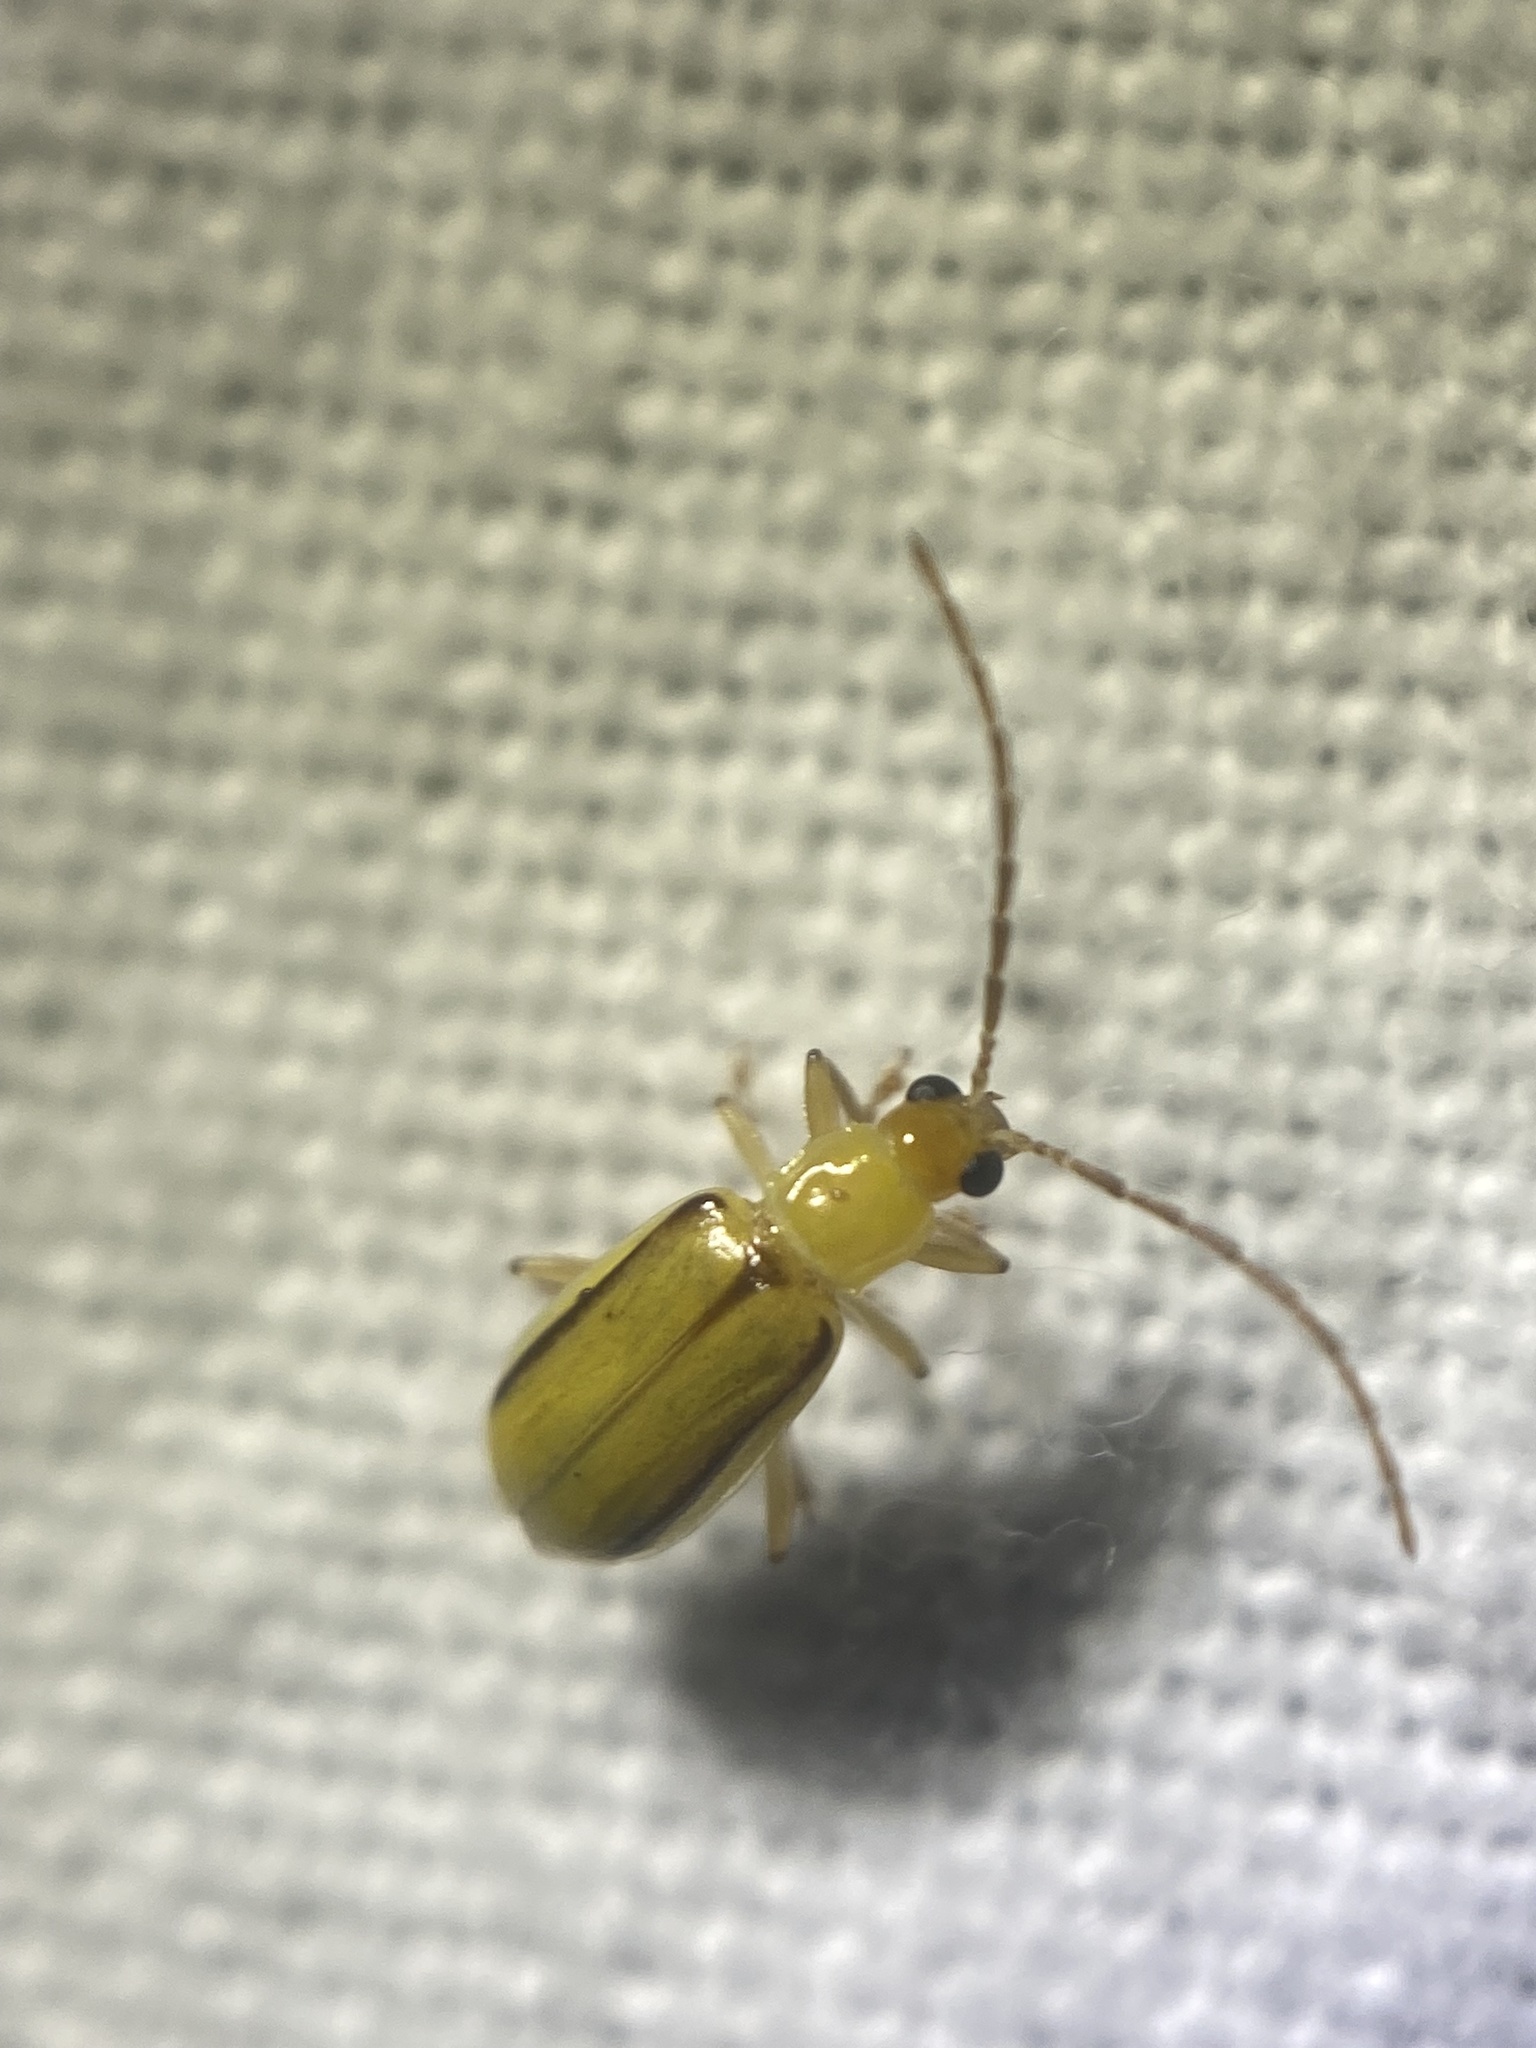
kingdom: Animalia
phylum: Arthropoda
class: Insecta
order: Coleoptera
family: Chrysomelidae
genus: Diabrotica
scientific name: Diabrotica barberi
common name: Northern corn rootworm
